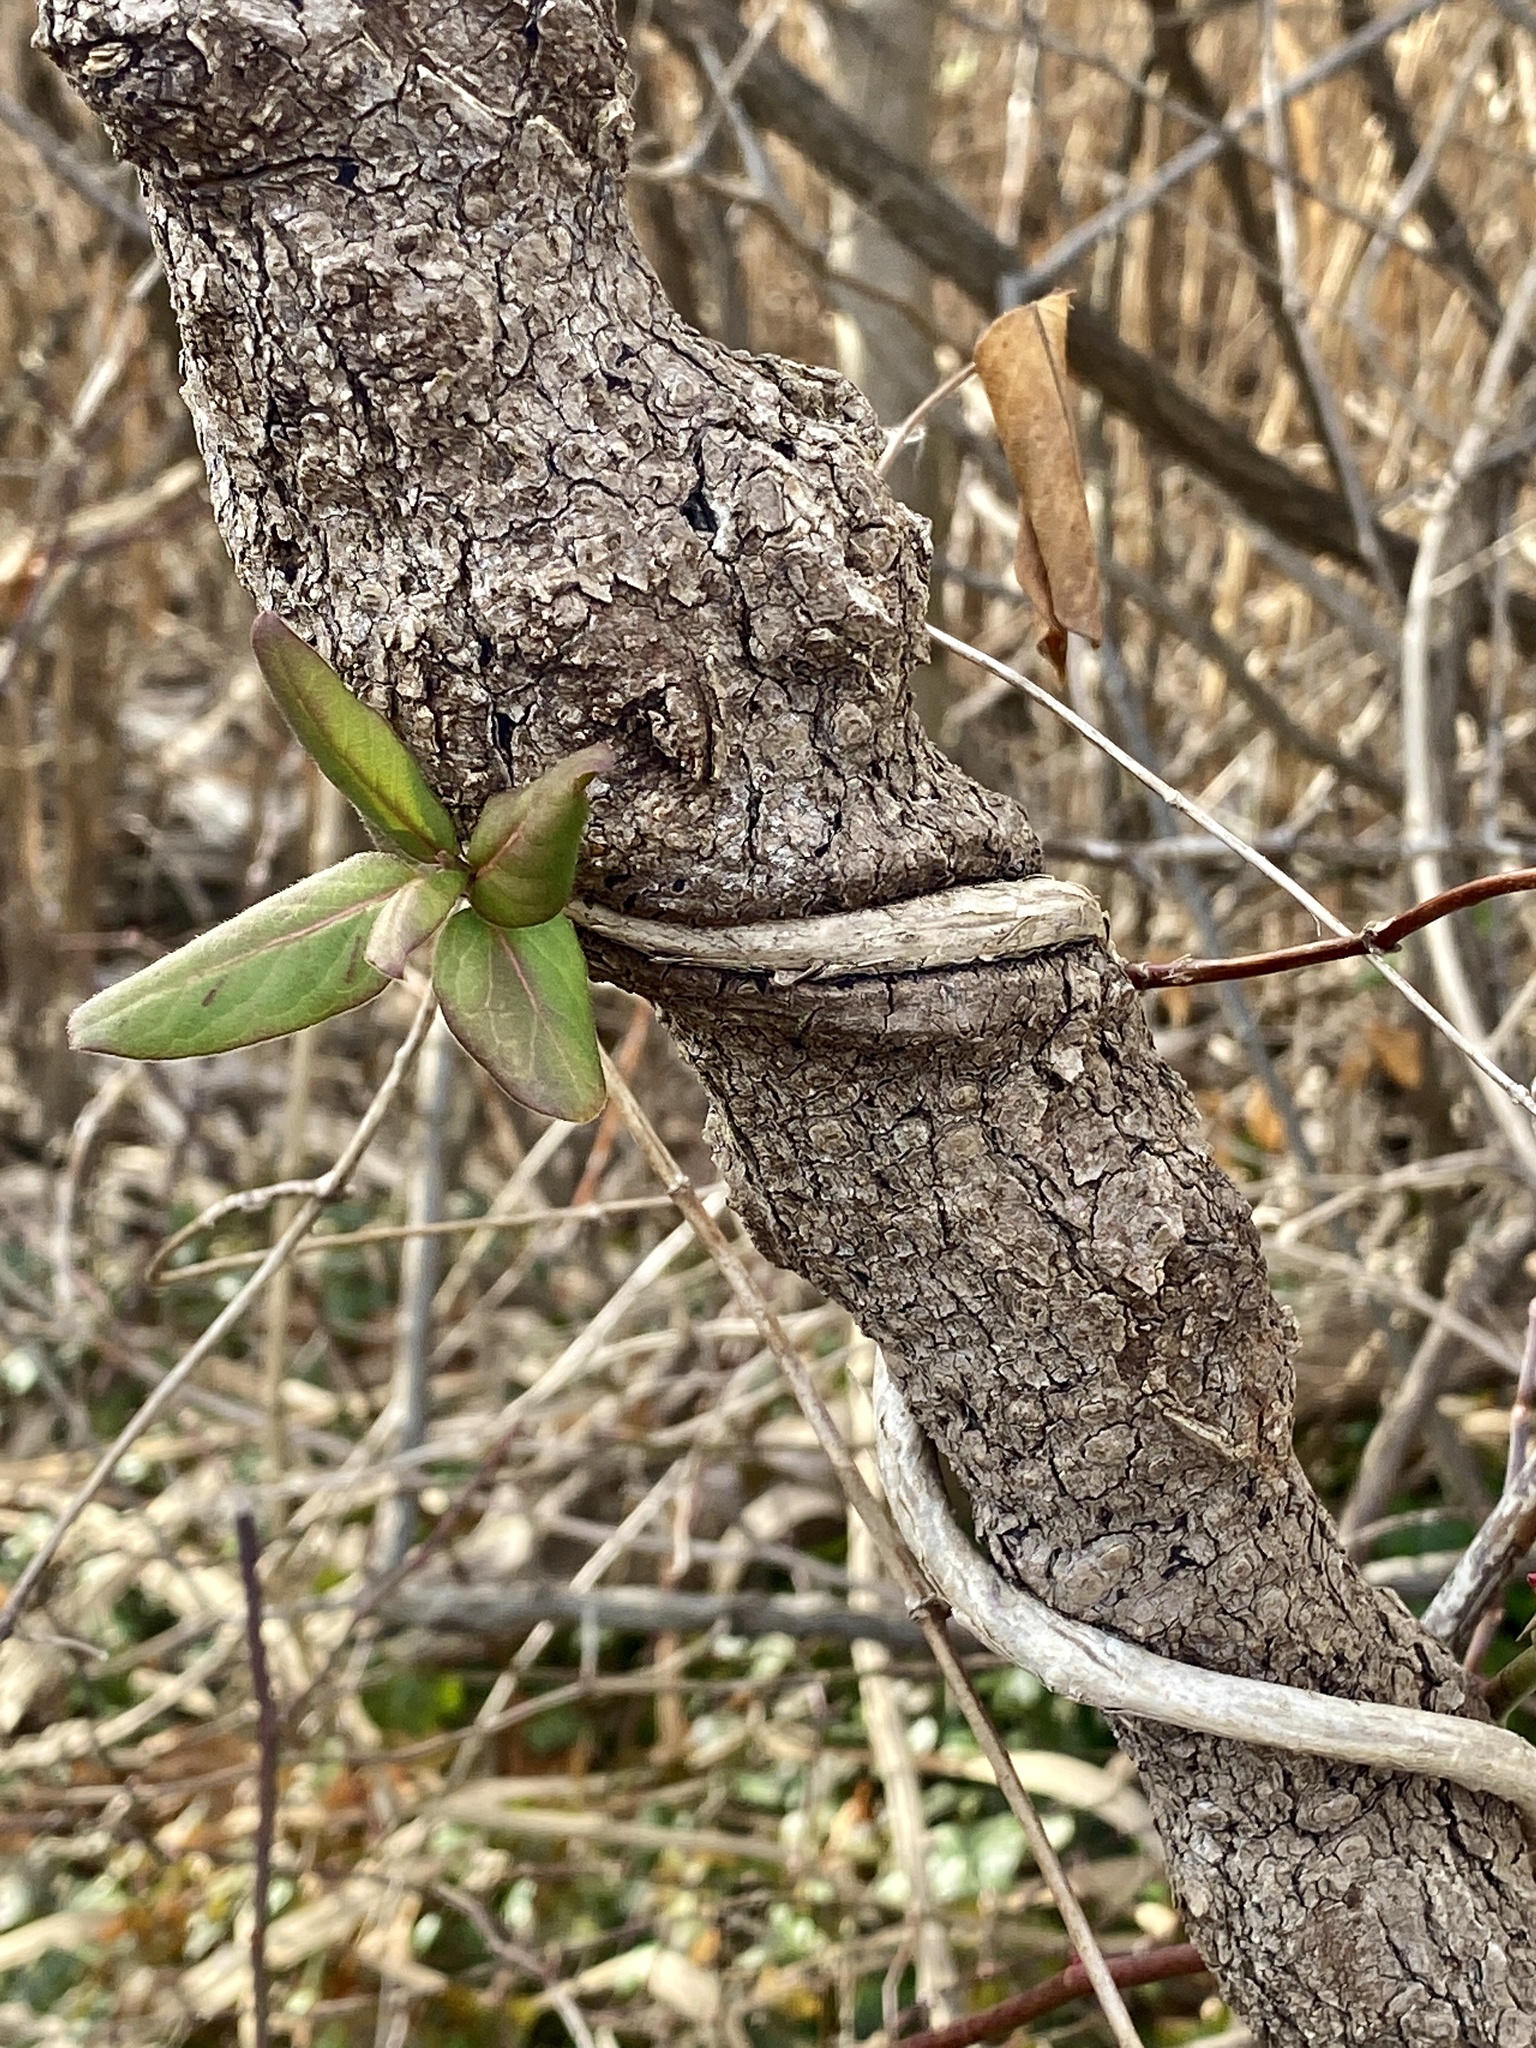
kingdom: Plantae
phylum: Tracheophyta
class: Magnoliopsida
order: Dipsacales
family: Caprifoliaceae
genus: Lonicera
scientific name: Lonicera japonica
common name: Japanese honeysuckle
